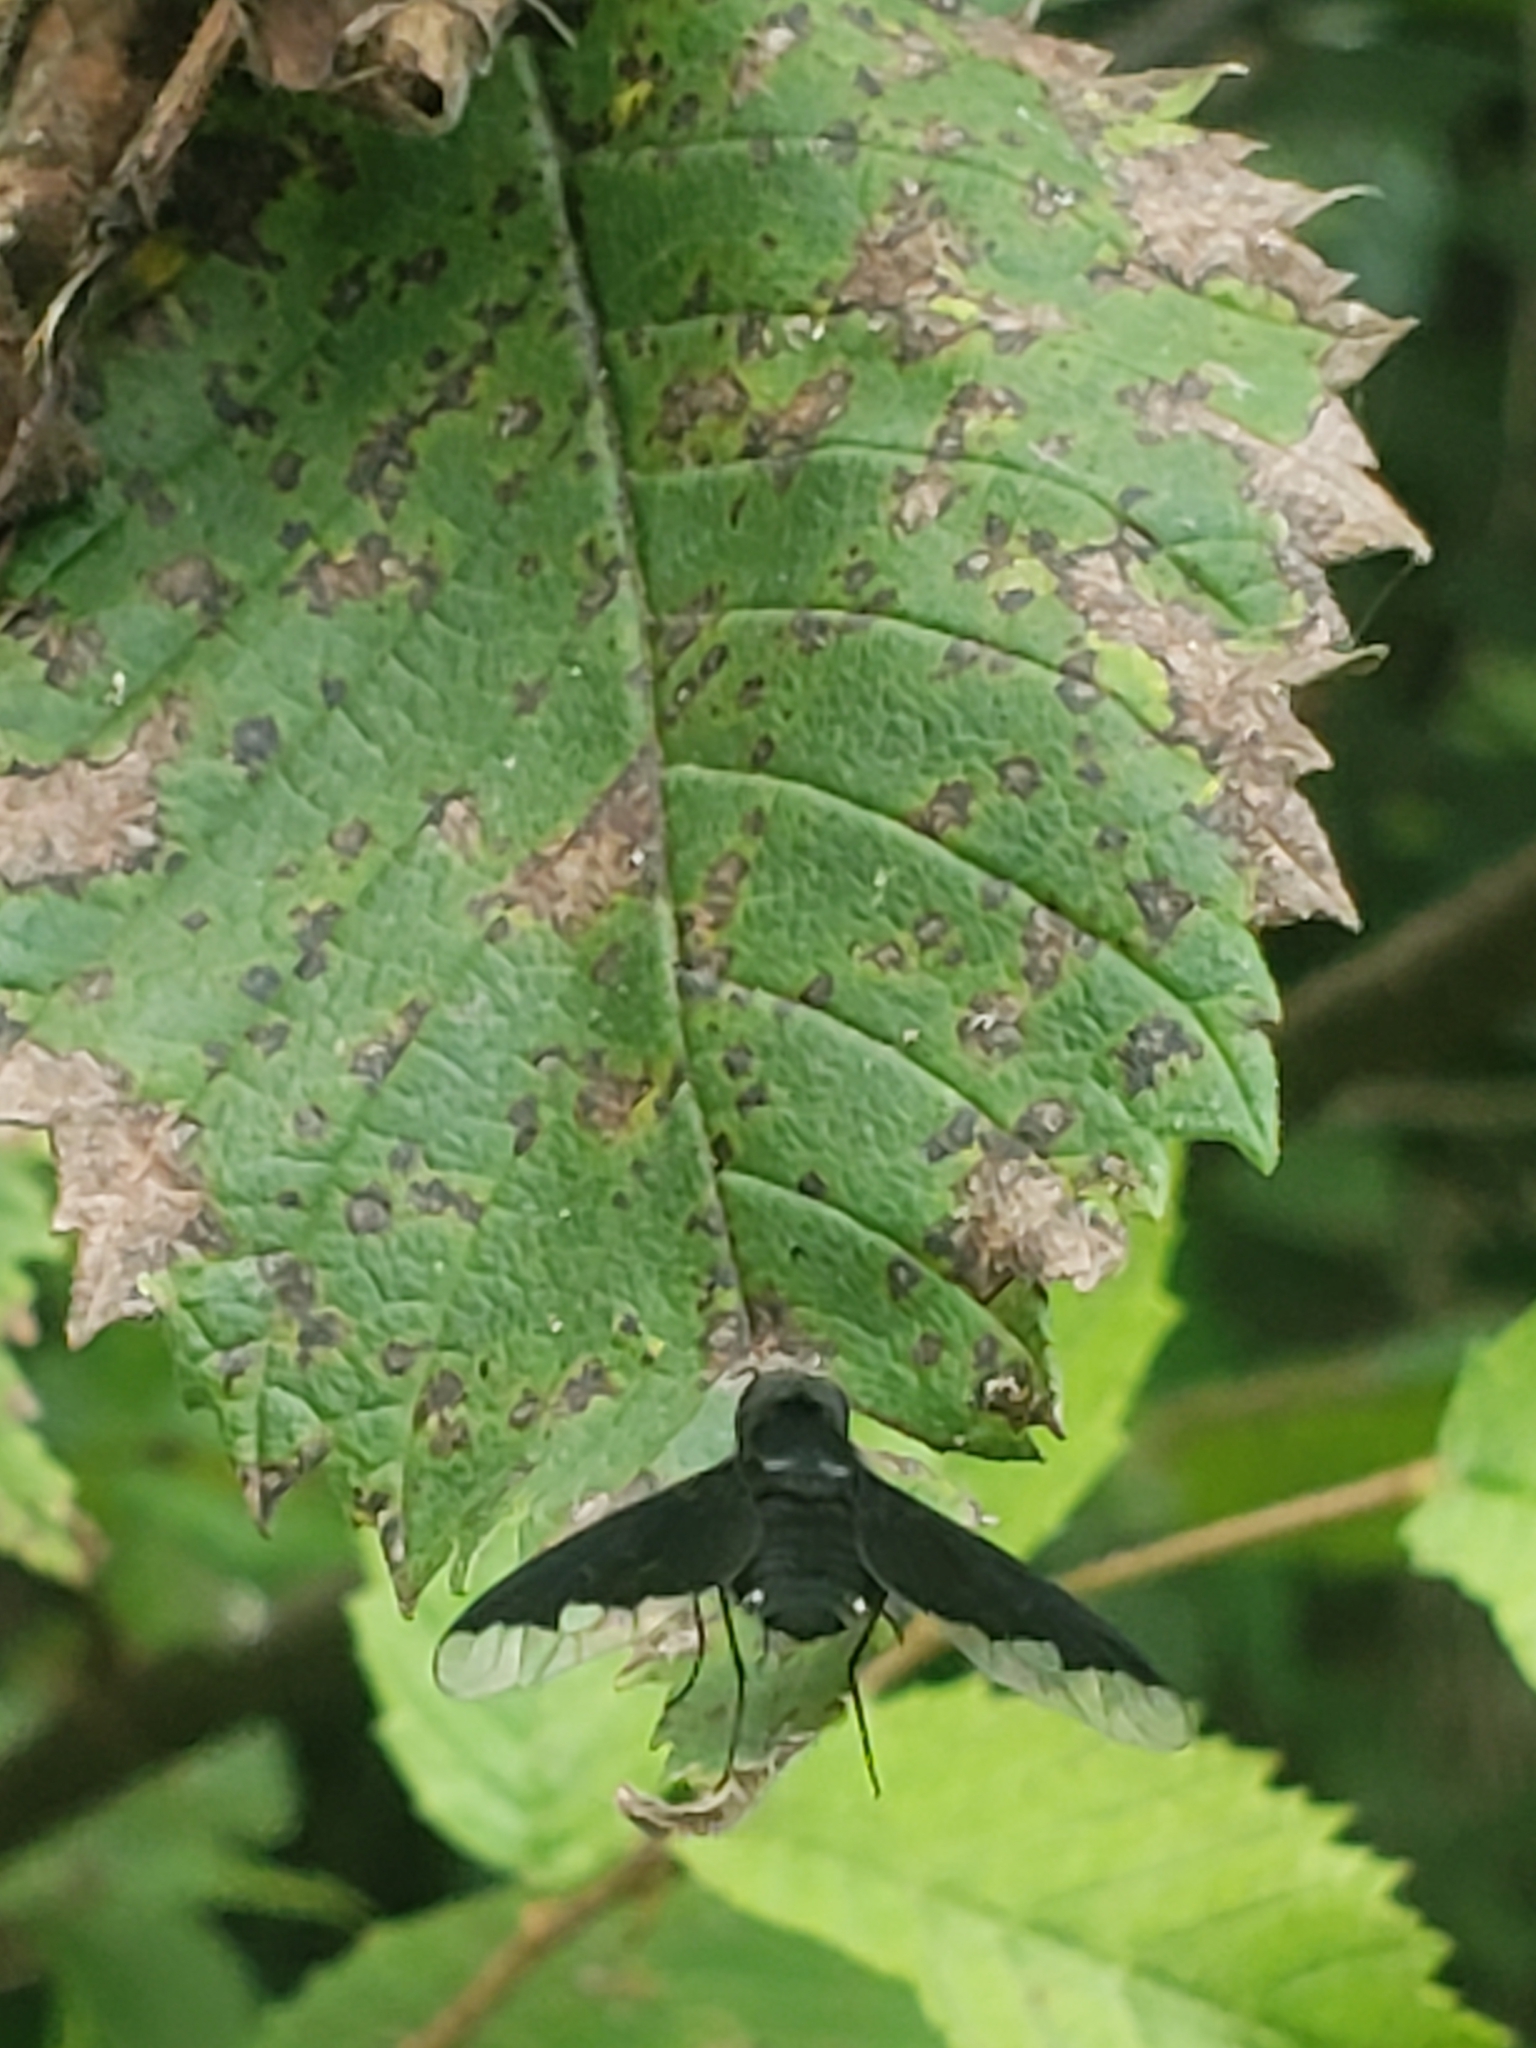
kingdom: Animalia
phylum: Arthropoda
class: Insecta
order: Diptera
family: Bombyliidae
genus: Anthrax
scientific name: Anthrax analis
